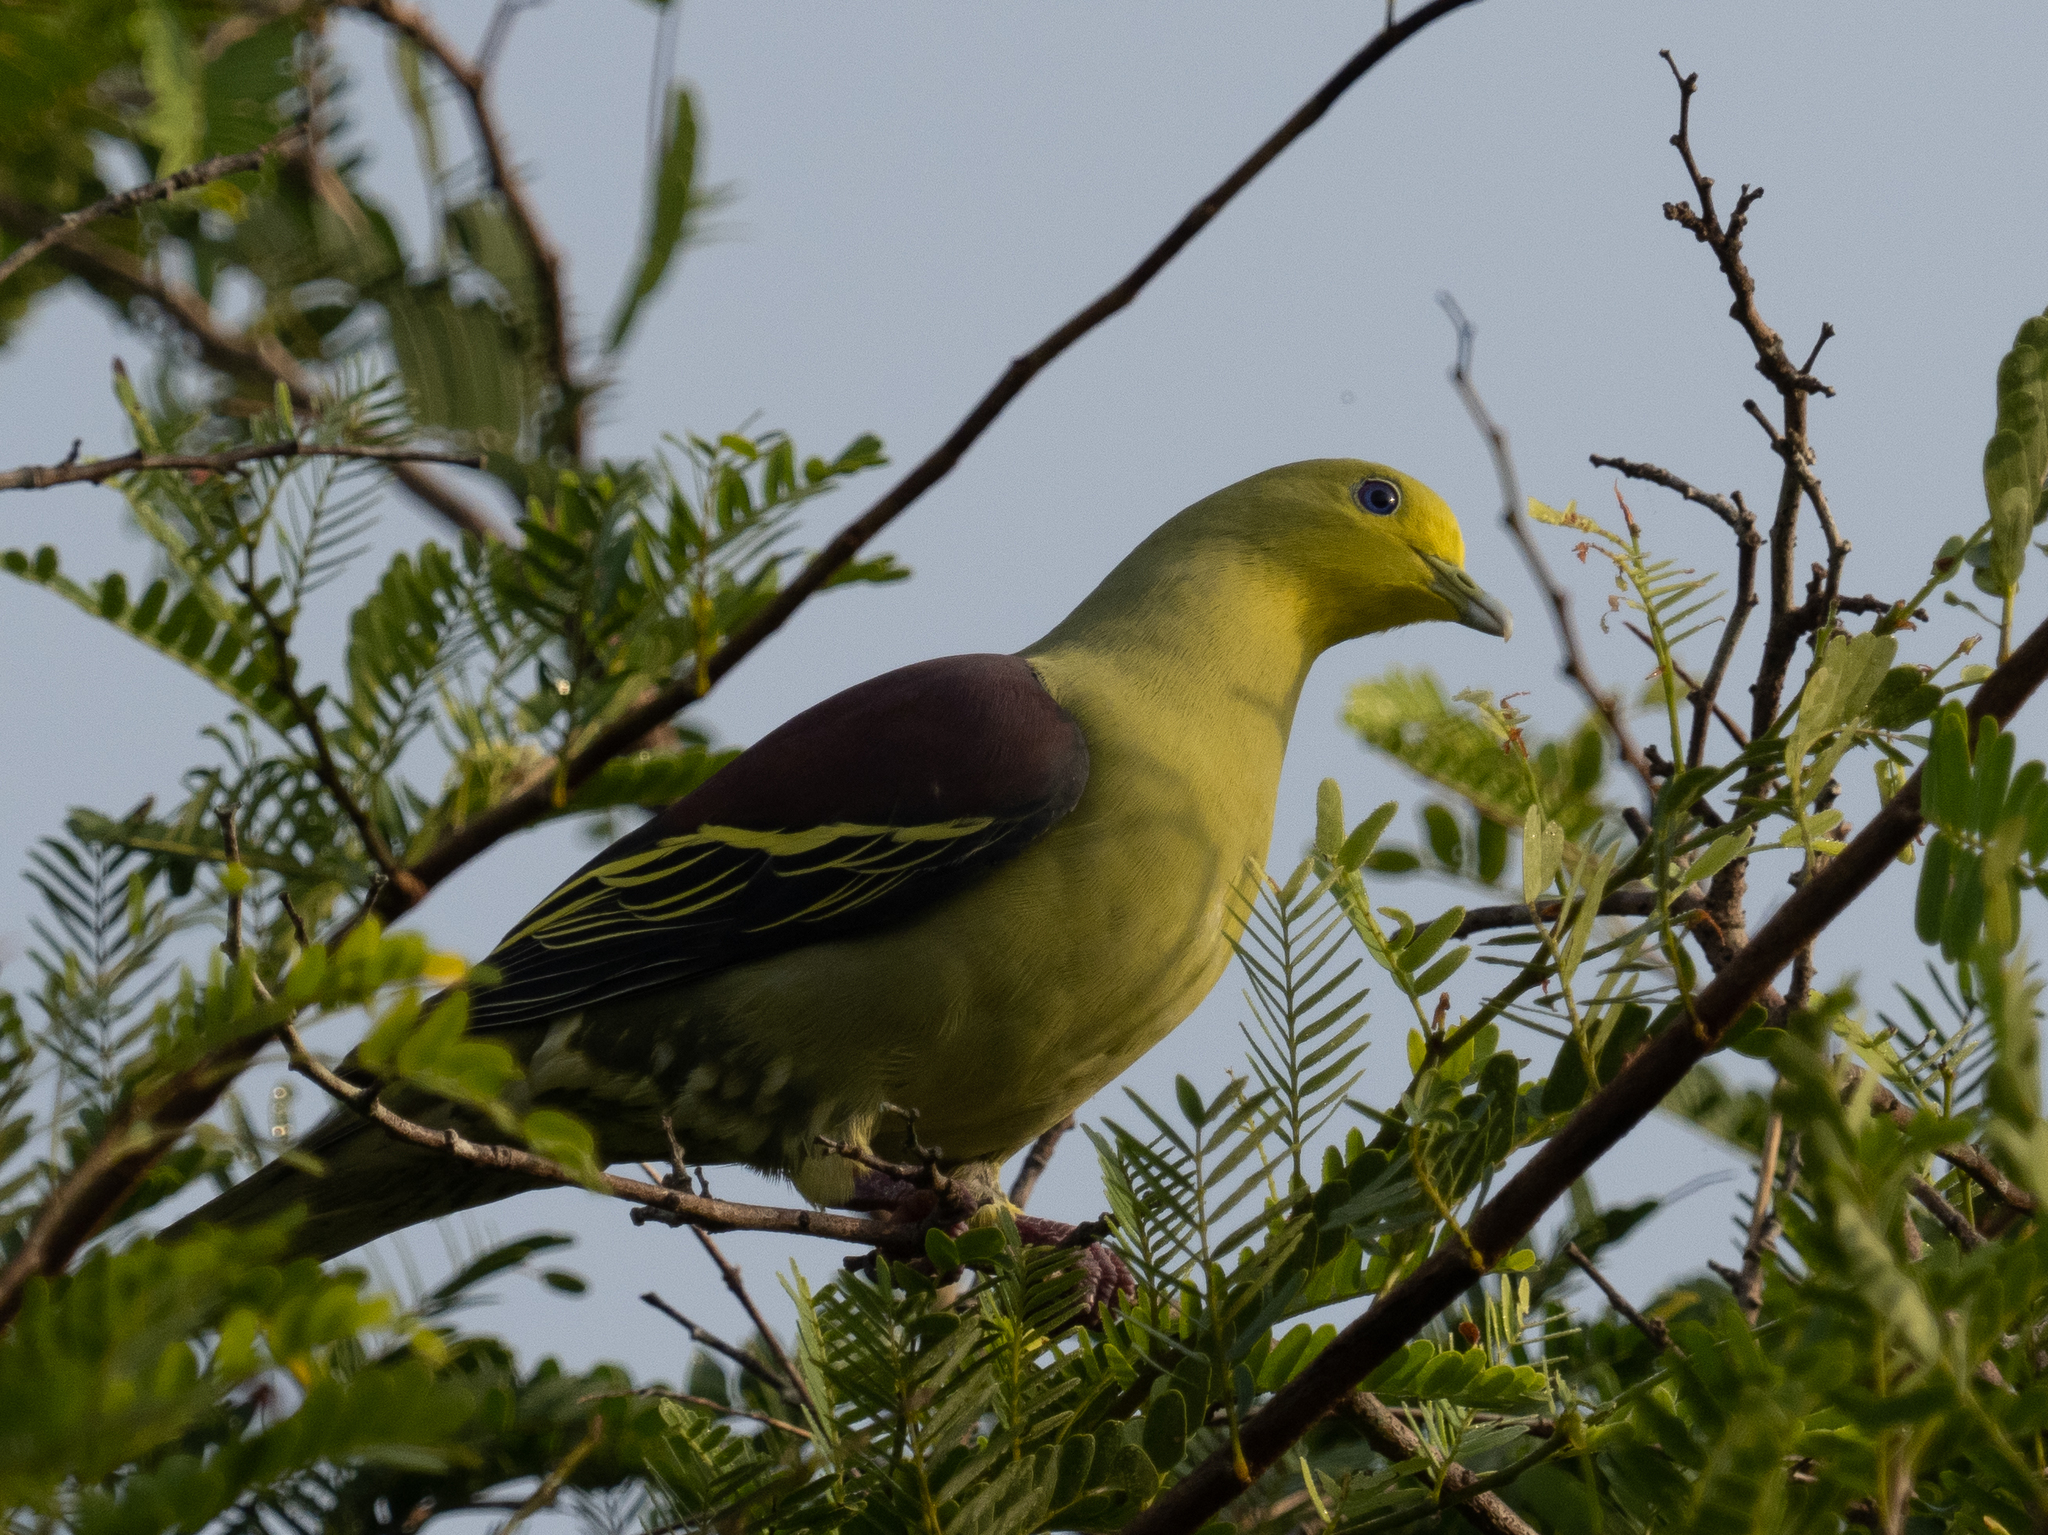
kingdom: Animalia
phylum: Chordata
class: Aves
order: Columbiformes
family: Columbidae
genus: Treron
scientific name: Treron pompadora
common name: Pompadour green pigeon
